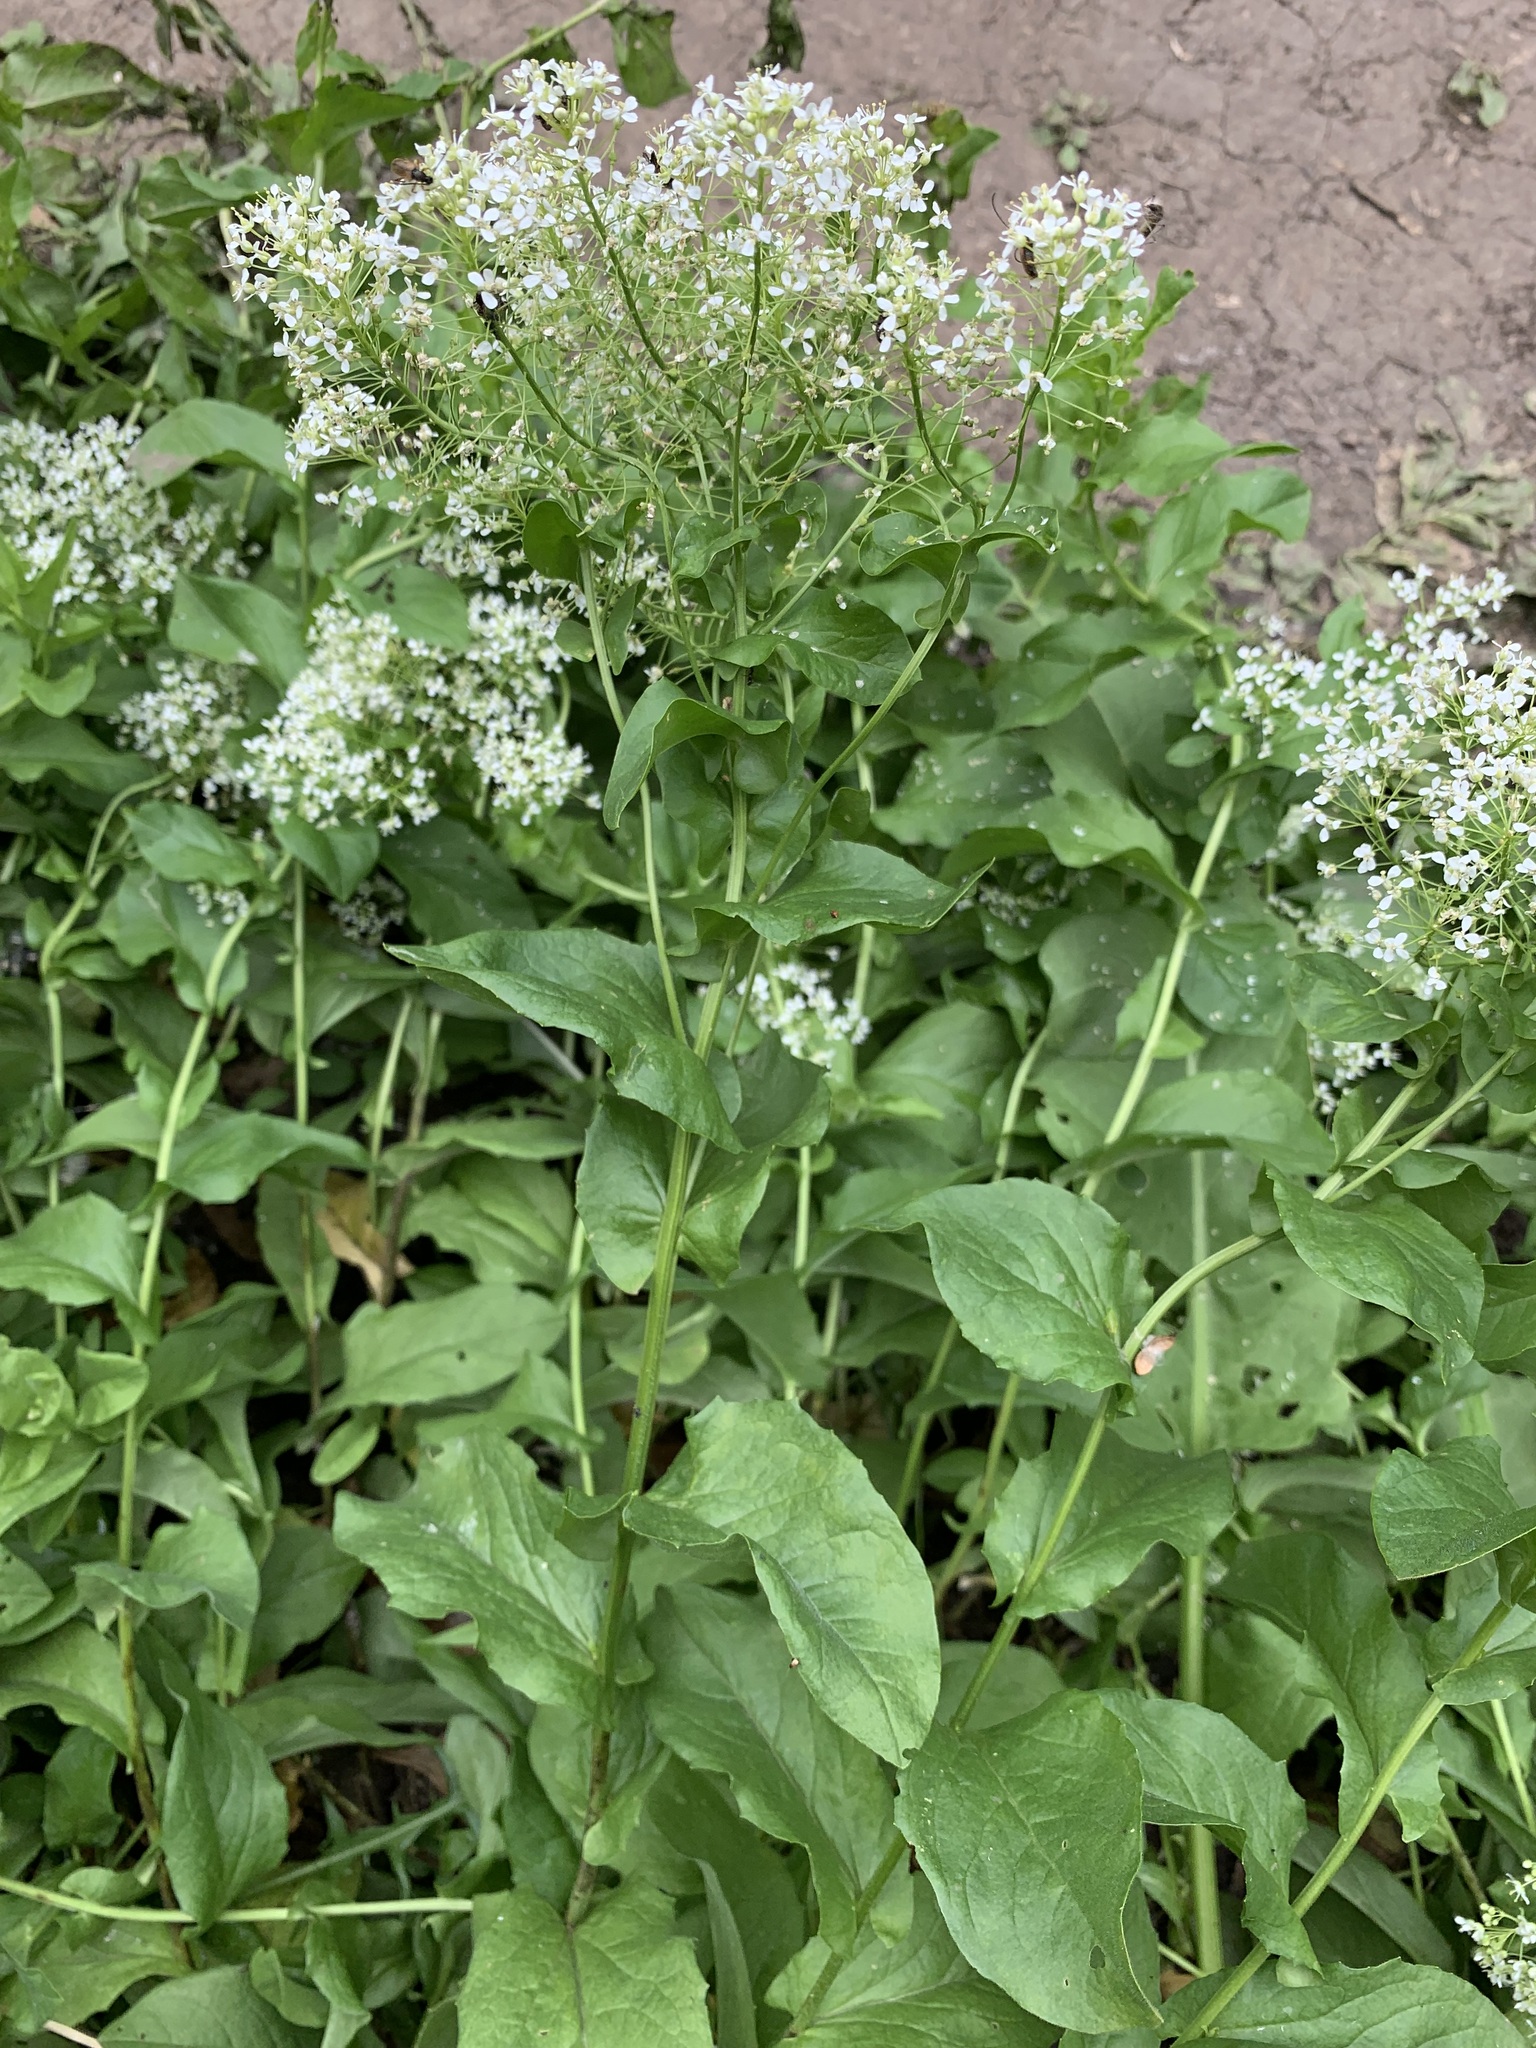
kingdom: Plantae
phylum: Tracheophyta
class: Magnoliopsida
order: Brassicales
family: Brassicaceae
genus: Lepidium
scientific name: Lepidium draba
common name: Hoary cress
